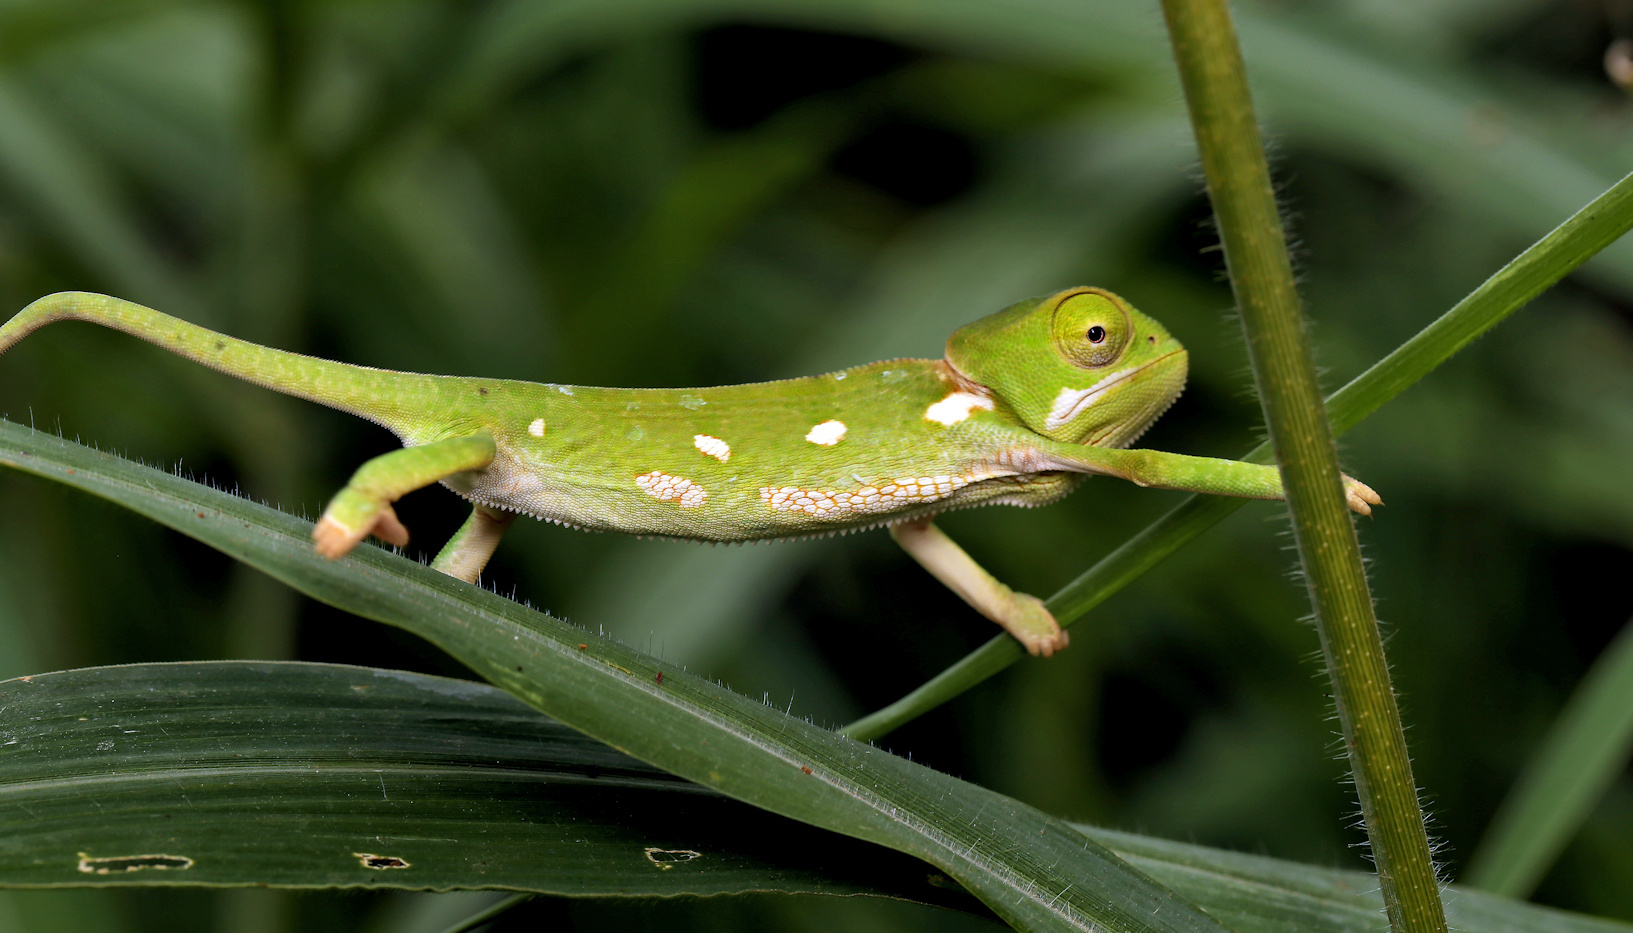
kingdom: Animalia
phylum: Chordata
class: Squamata
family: Chamaeleonidae
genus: Chamaeleo
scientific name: Chamaeleo dilepis
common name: Flapneck chameleon
